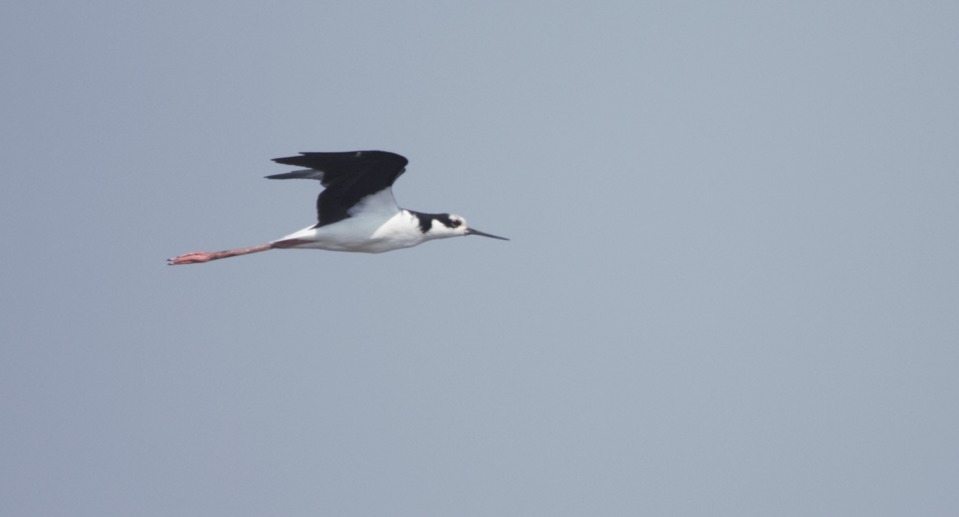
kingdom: Animalia
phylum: Chordata
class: Aves
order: Charadriiformes
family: Recurvirostridae
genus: Himantopus
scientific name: Himantopus mexicanus
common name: Black-necked stilt
